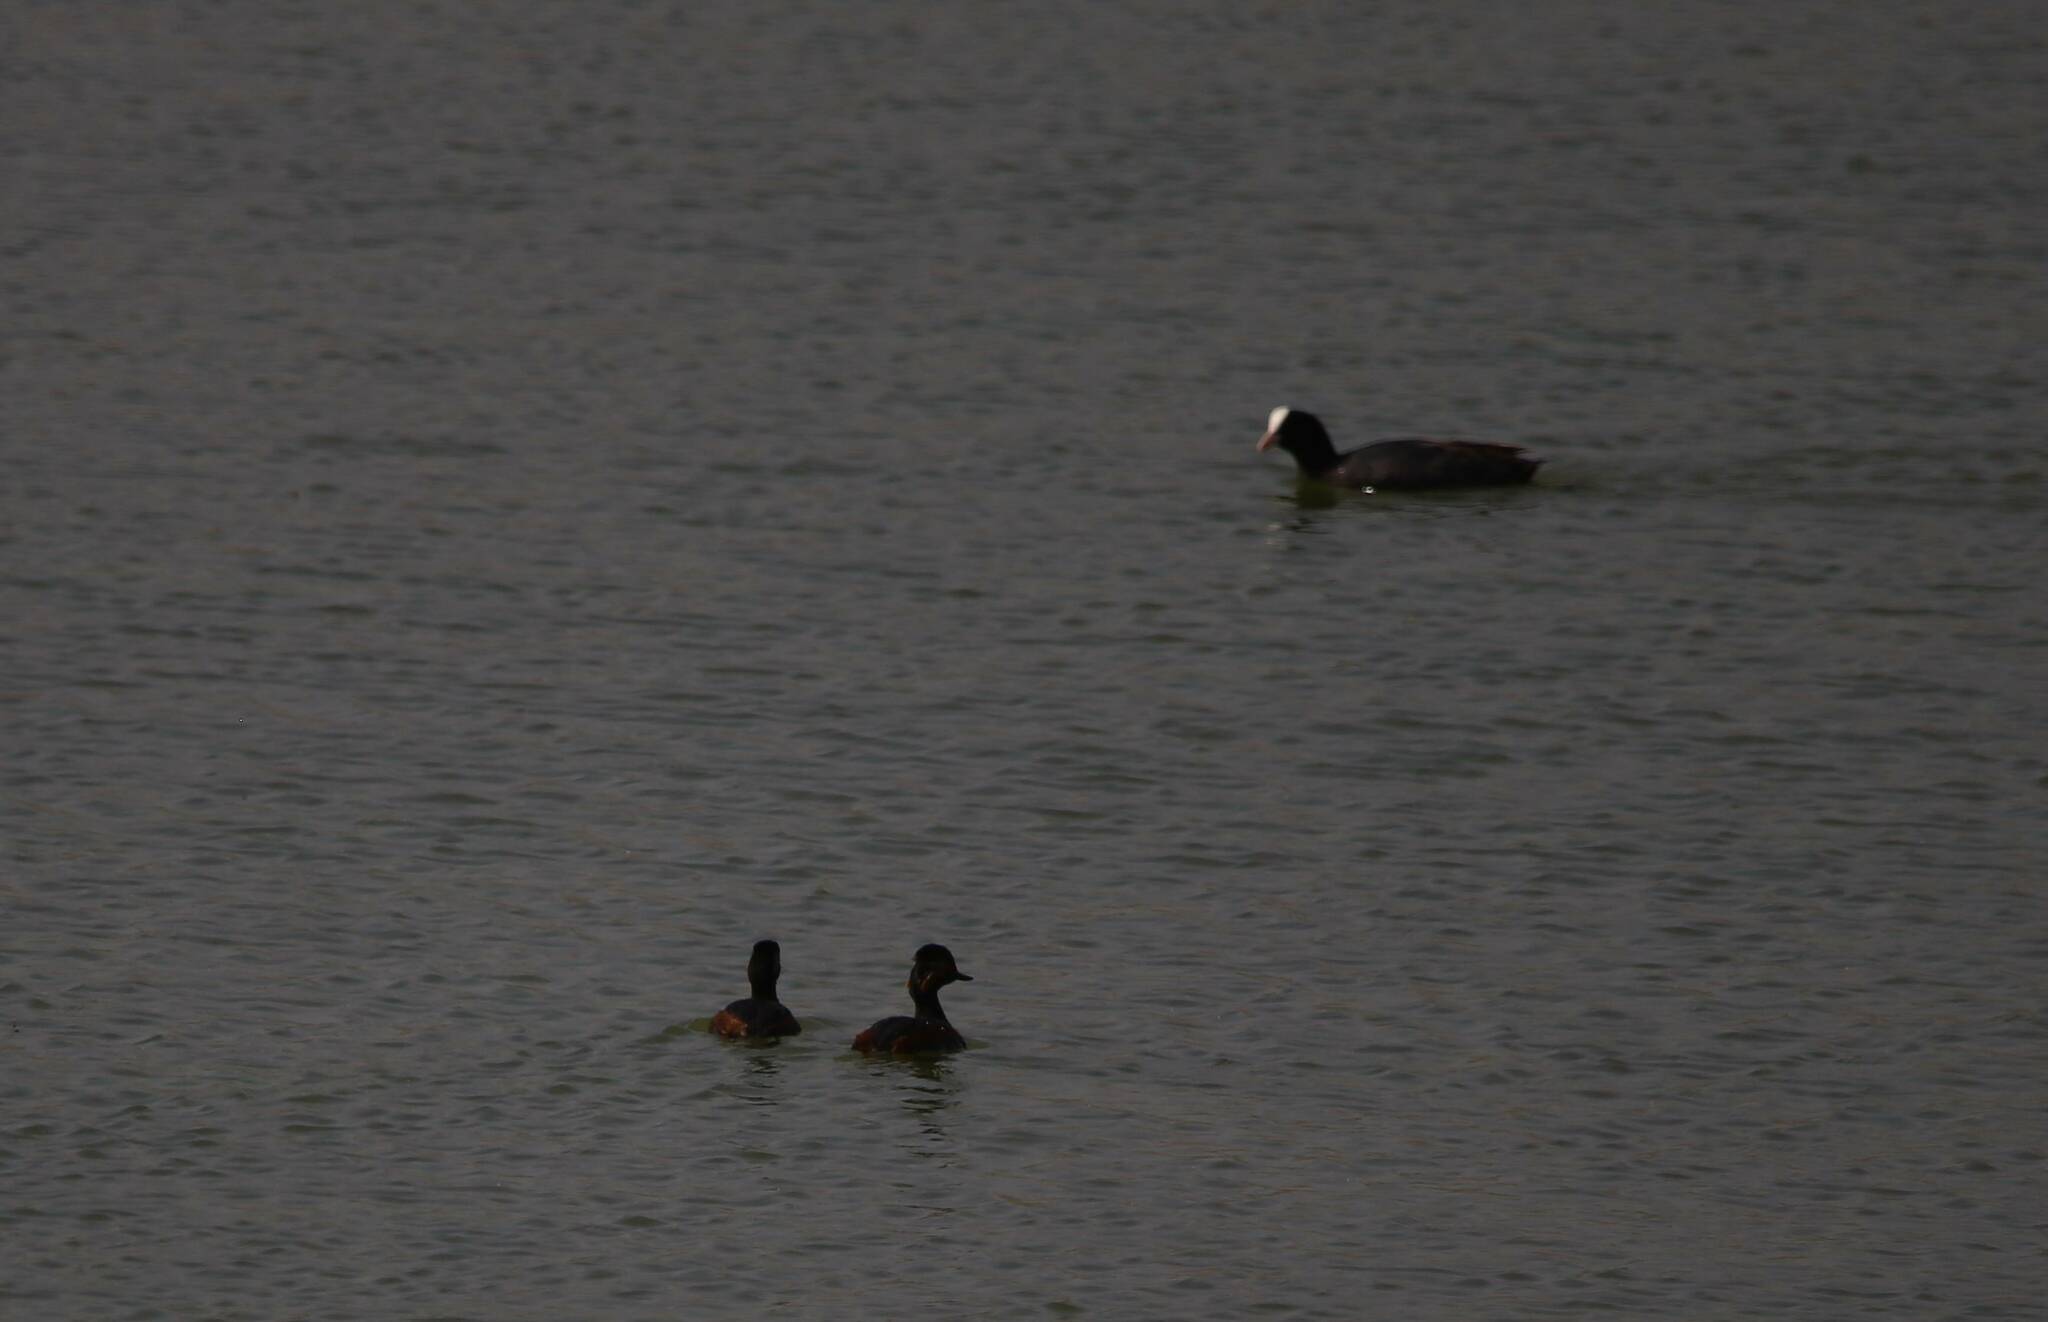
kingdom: Animalia
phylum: Chordata
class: Aves
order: Gruiformes
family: Rallidae
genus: Fulica
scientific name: Fulica atra
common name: Eurasian coot
